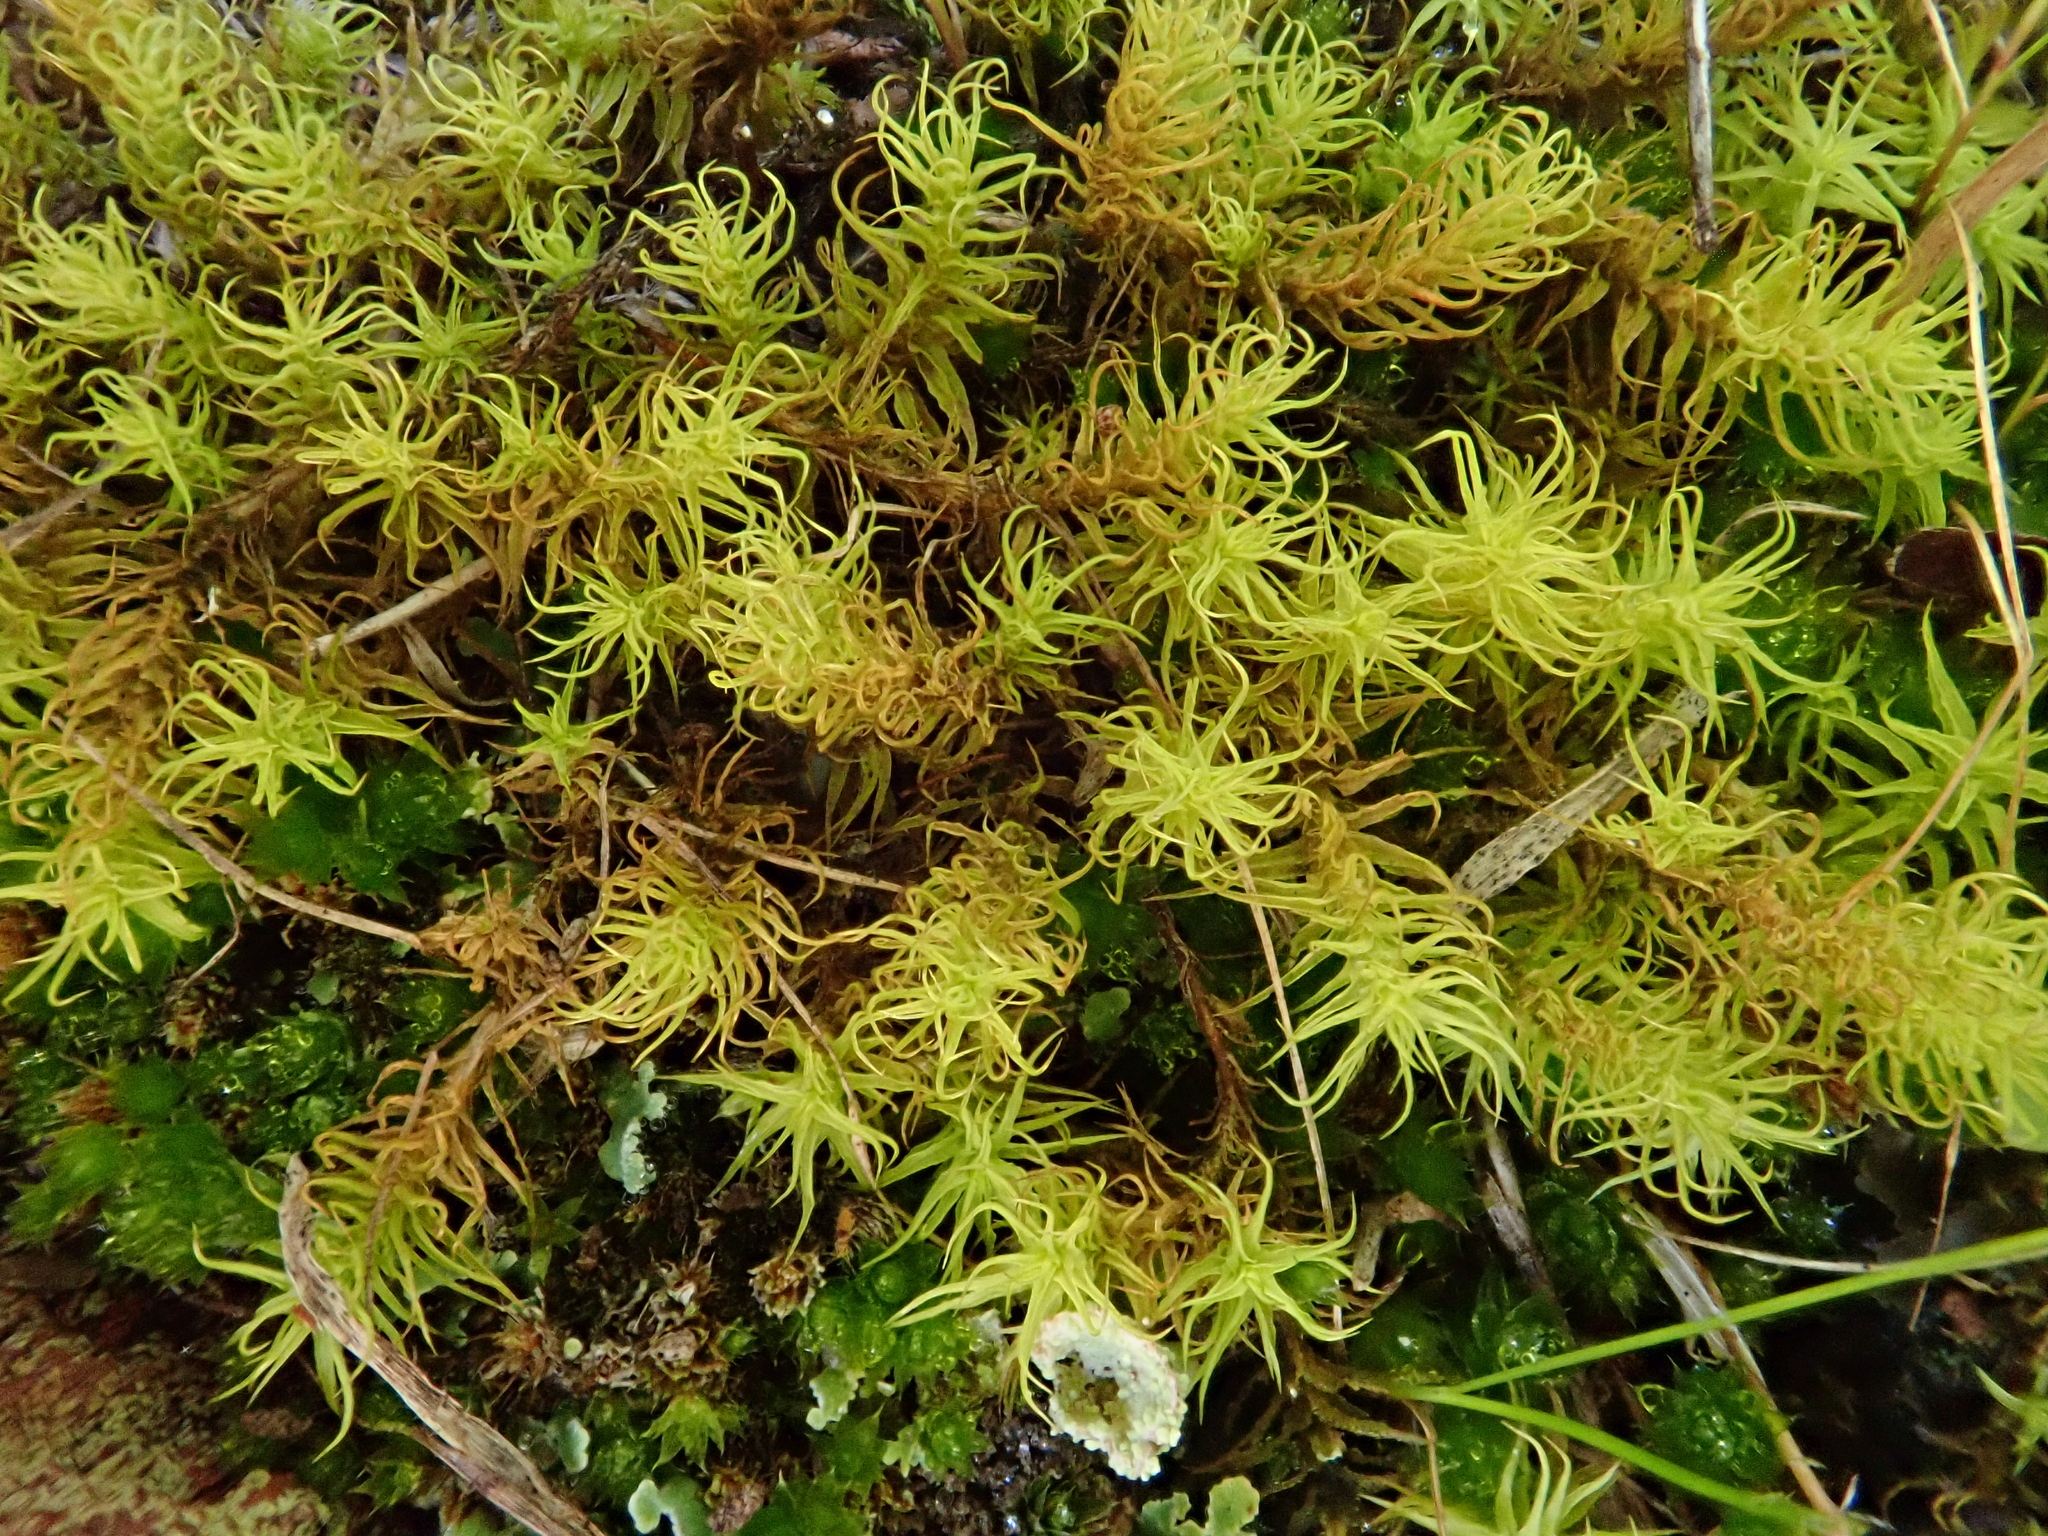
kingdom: Plantae
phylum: Bryophyta
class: Bryopsida
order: Pottiales
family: Pottiaceae
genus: Pleurochaete
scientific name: Pleurochaete squarrosa
